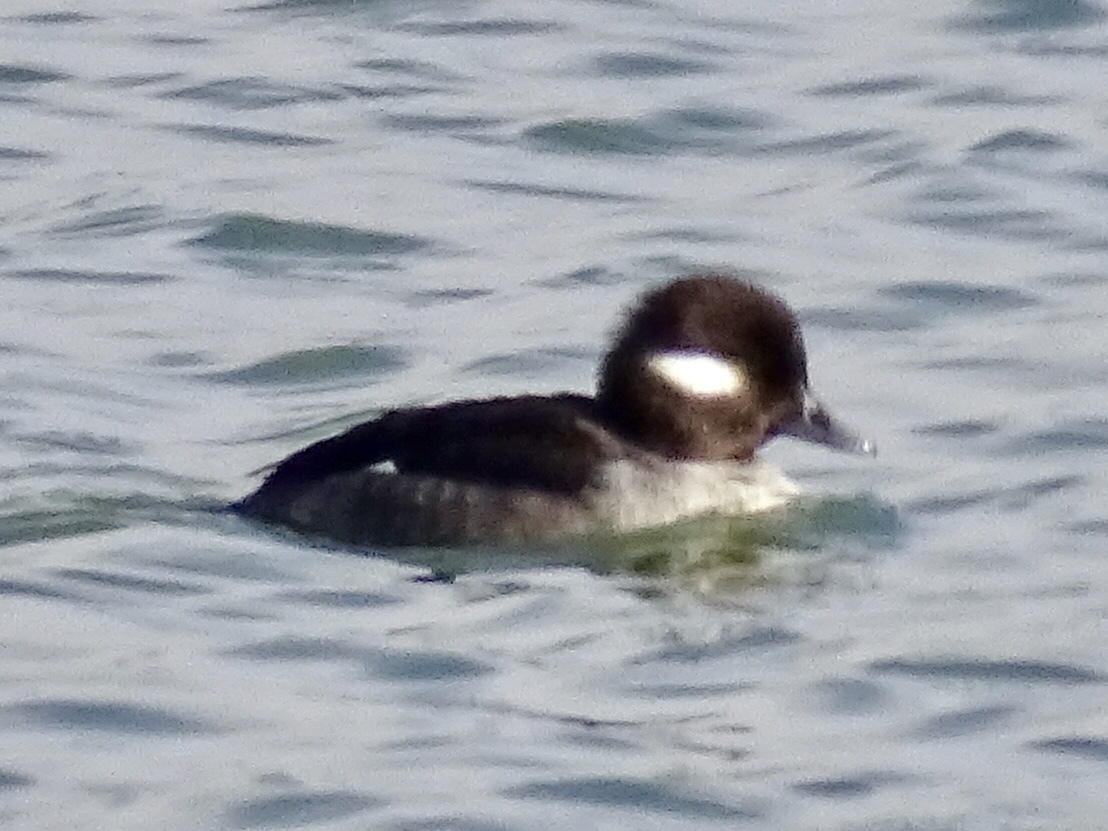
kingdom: Animalia
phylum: Chordata
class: Aves
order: Anseriformes
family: Anatidae
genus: Bucephala
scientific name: Bucephala albeola
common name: Bufflehead
